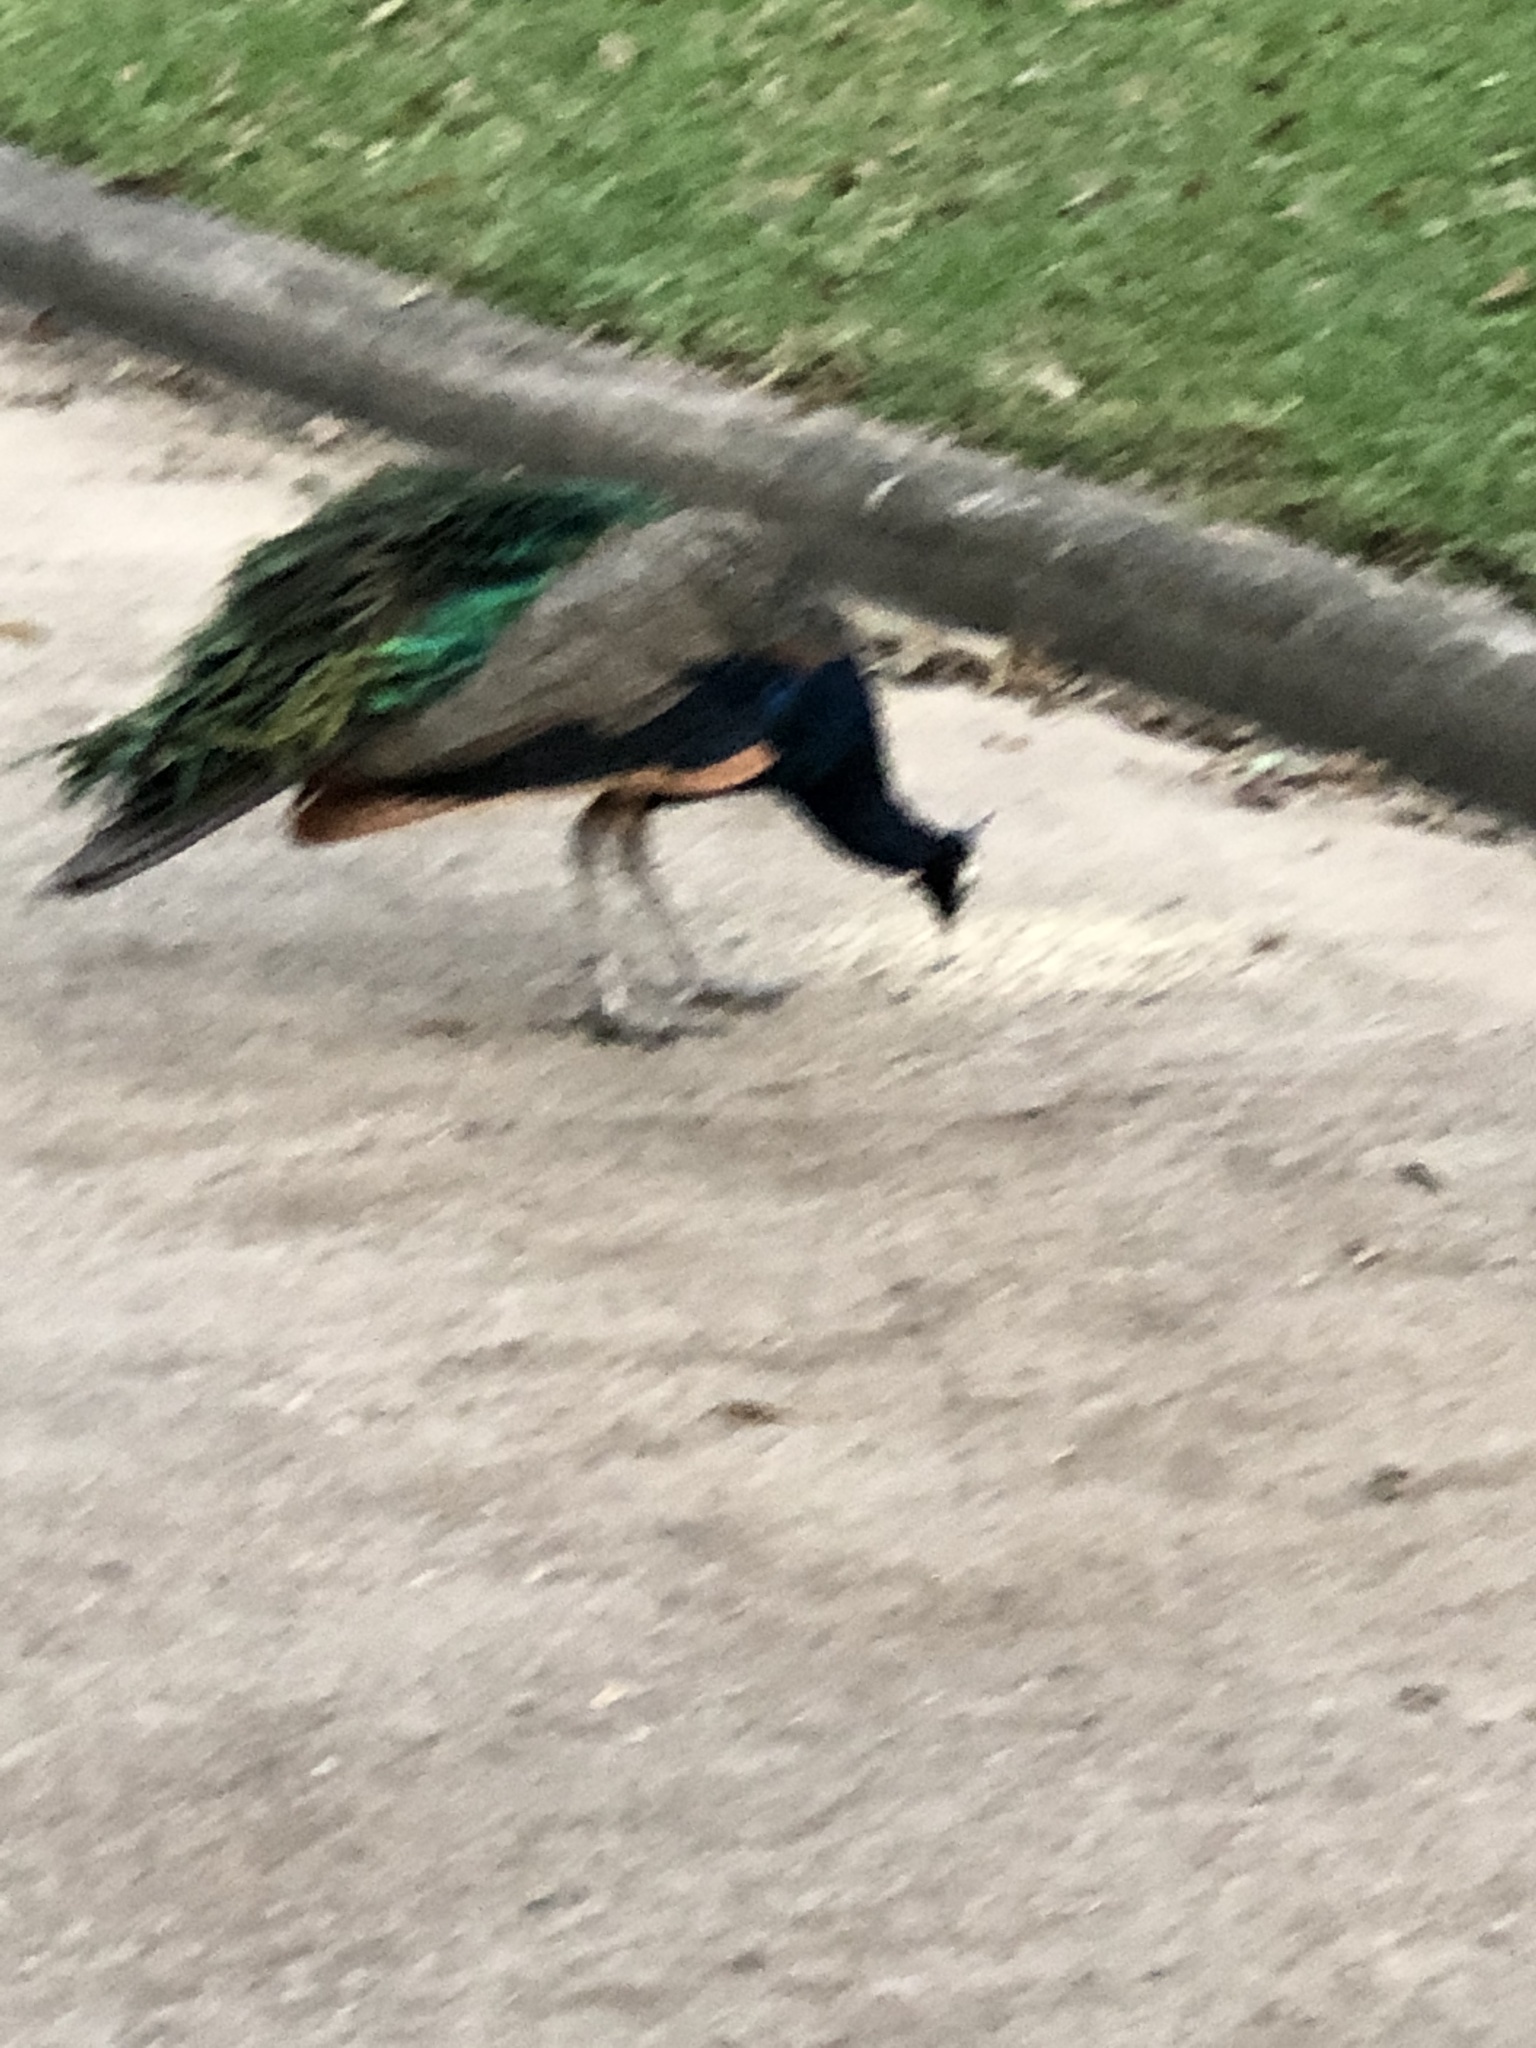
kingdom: Animalia
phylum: Chordata
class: Aves
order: Galliformes
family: Phasianidae
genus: Pavo
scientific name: Pavo cristatus
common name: Indian peafowl
